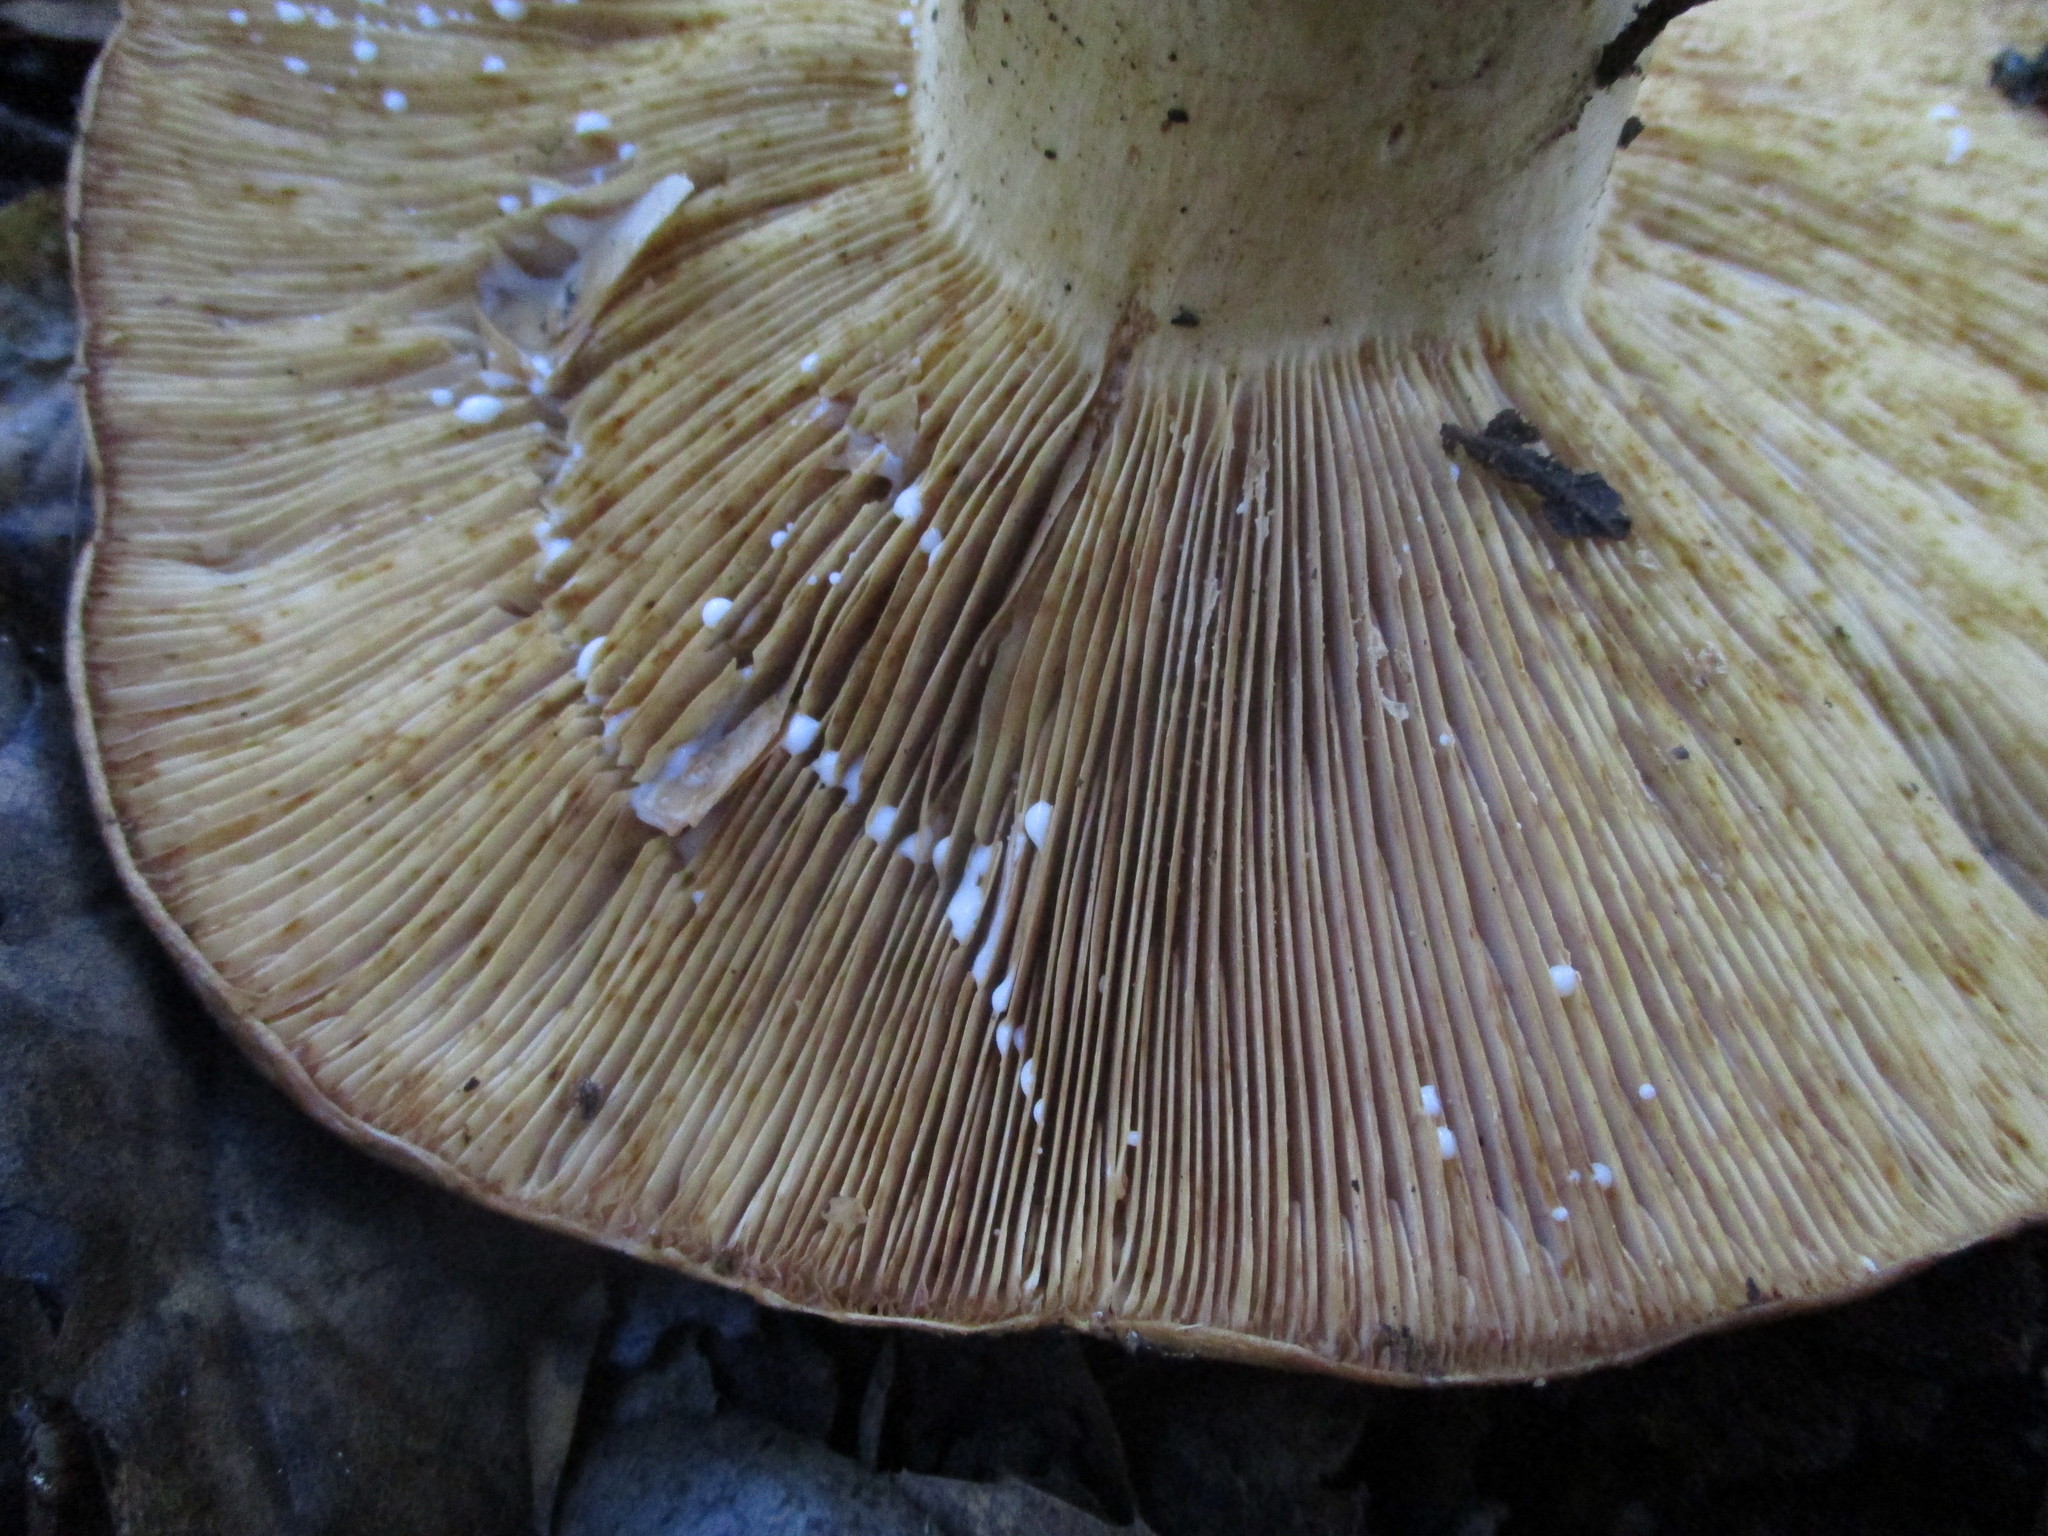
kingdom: Fungi
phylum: Basidiomycota
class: Agaricomycetes
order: Russulales
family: Russulaceae
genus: Lactarius
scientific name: Lactarius argillaceifolius
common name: Clay-gilled milkcap
